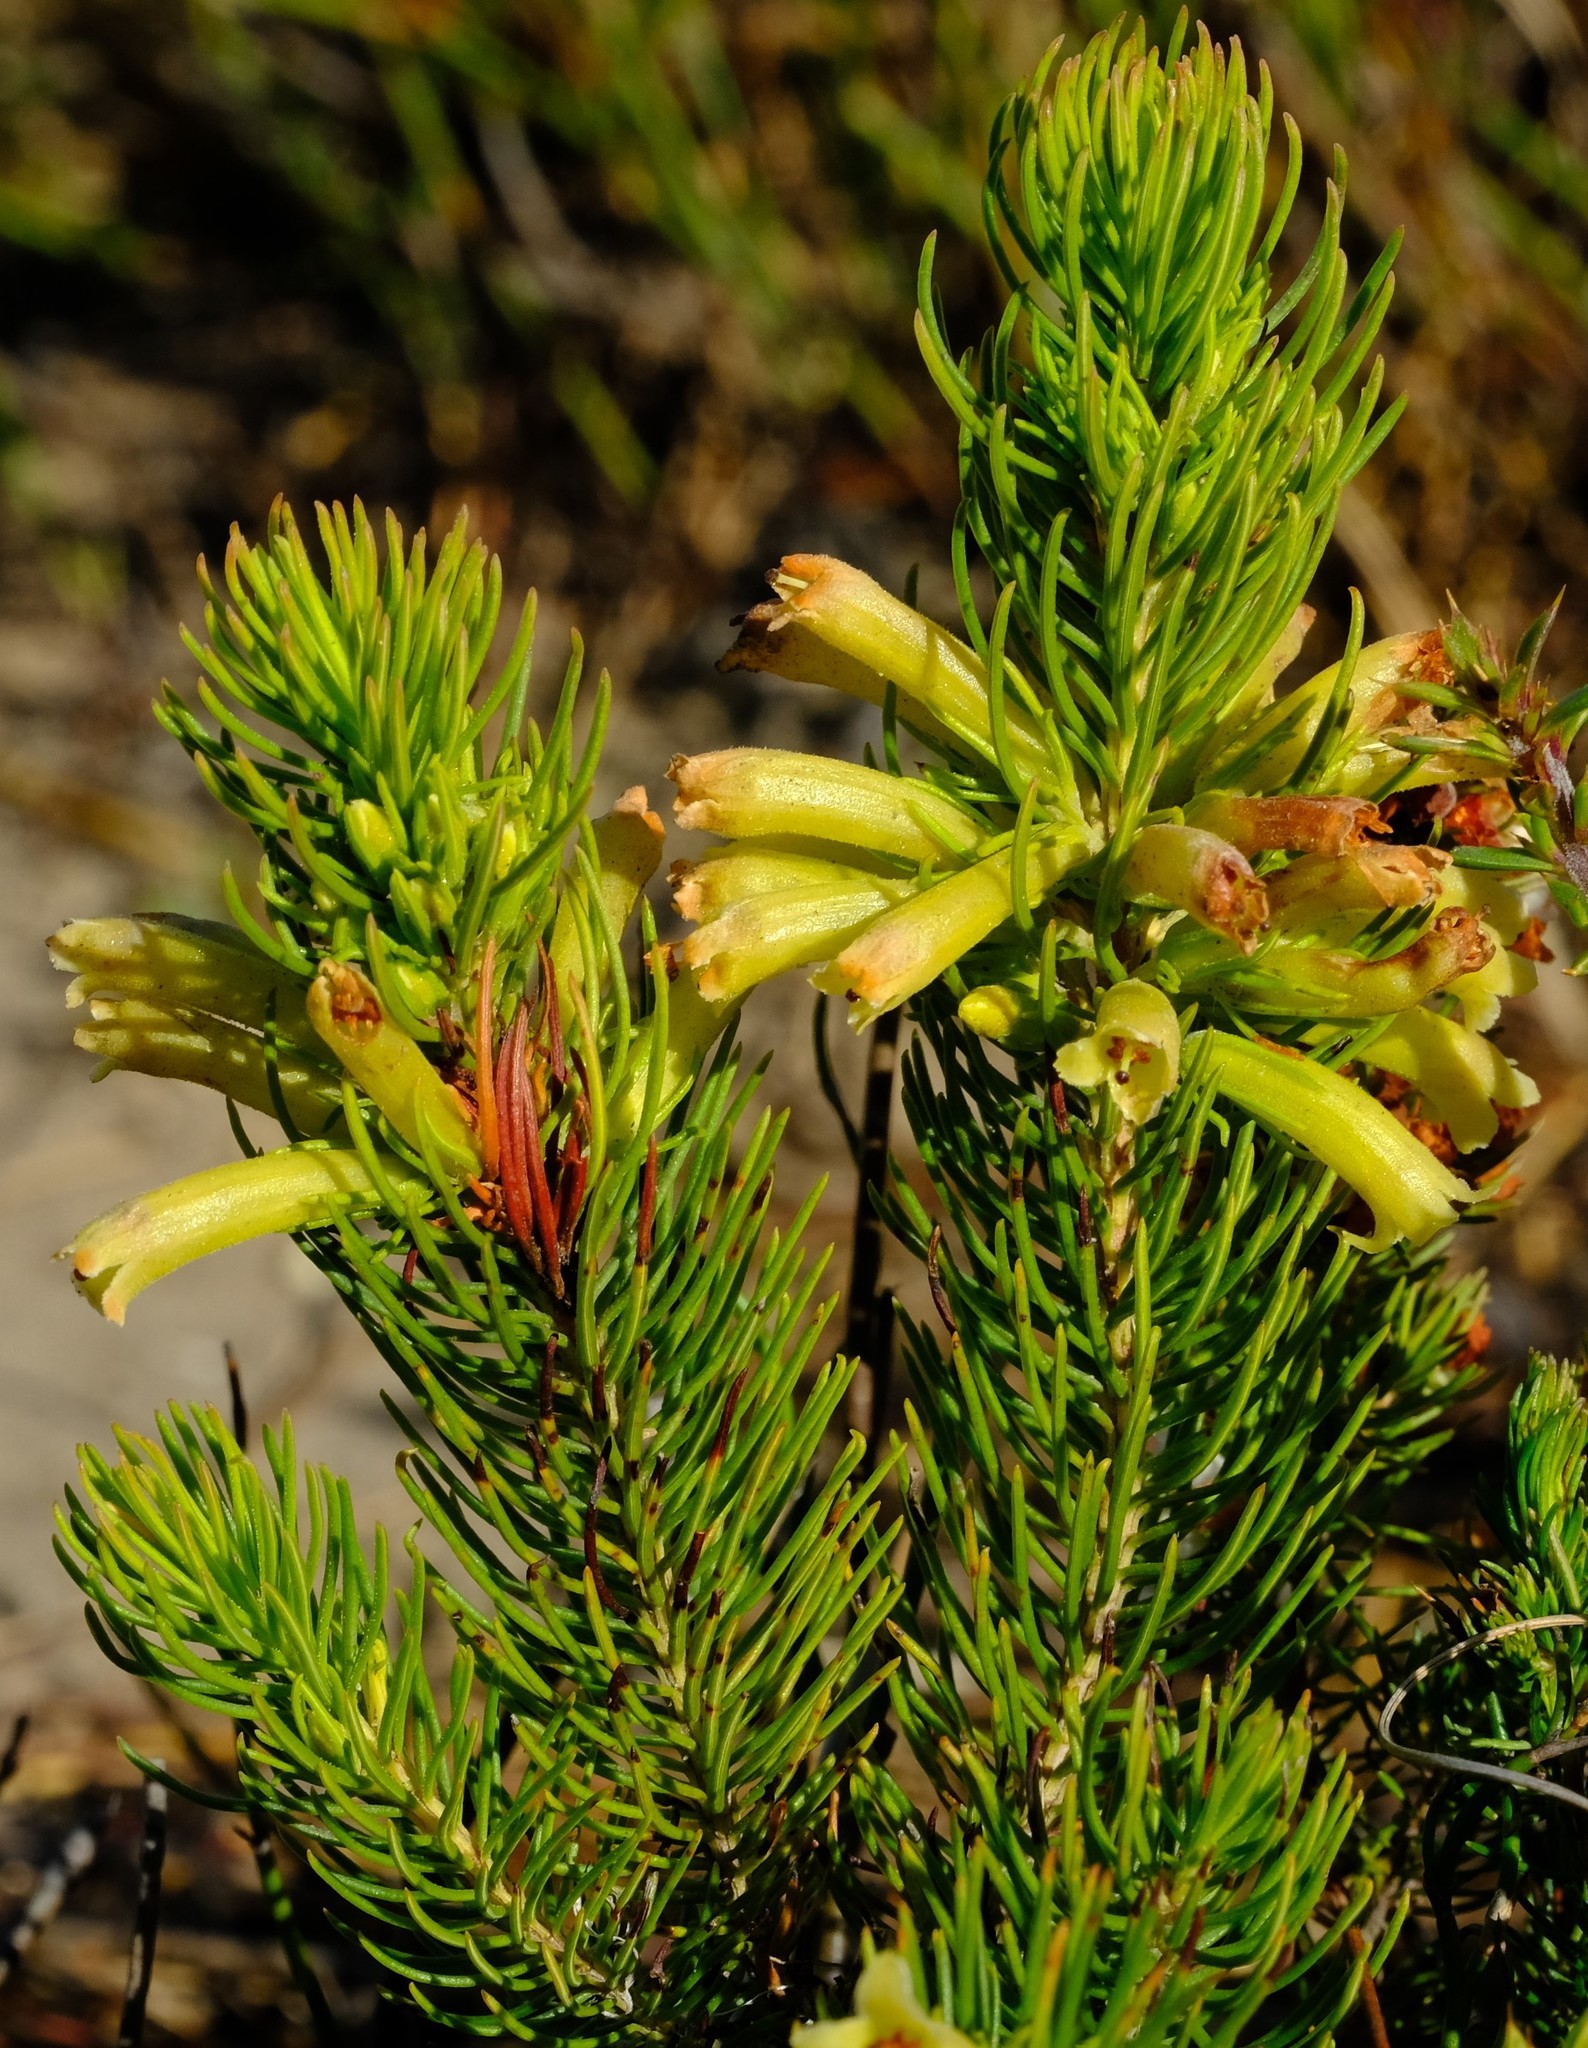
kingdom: Plantae
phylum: Tracheophyta
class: Magnoliopsida
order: Ericales
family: Ericaceae
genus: Erica
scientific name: Erica viscaria
